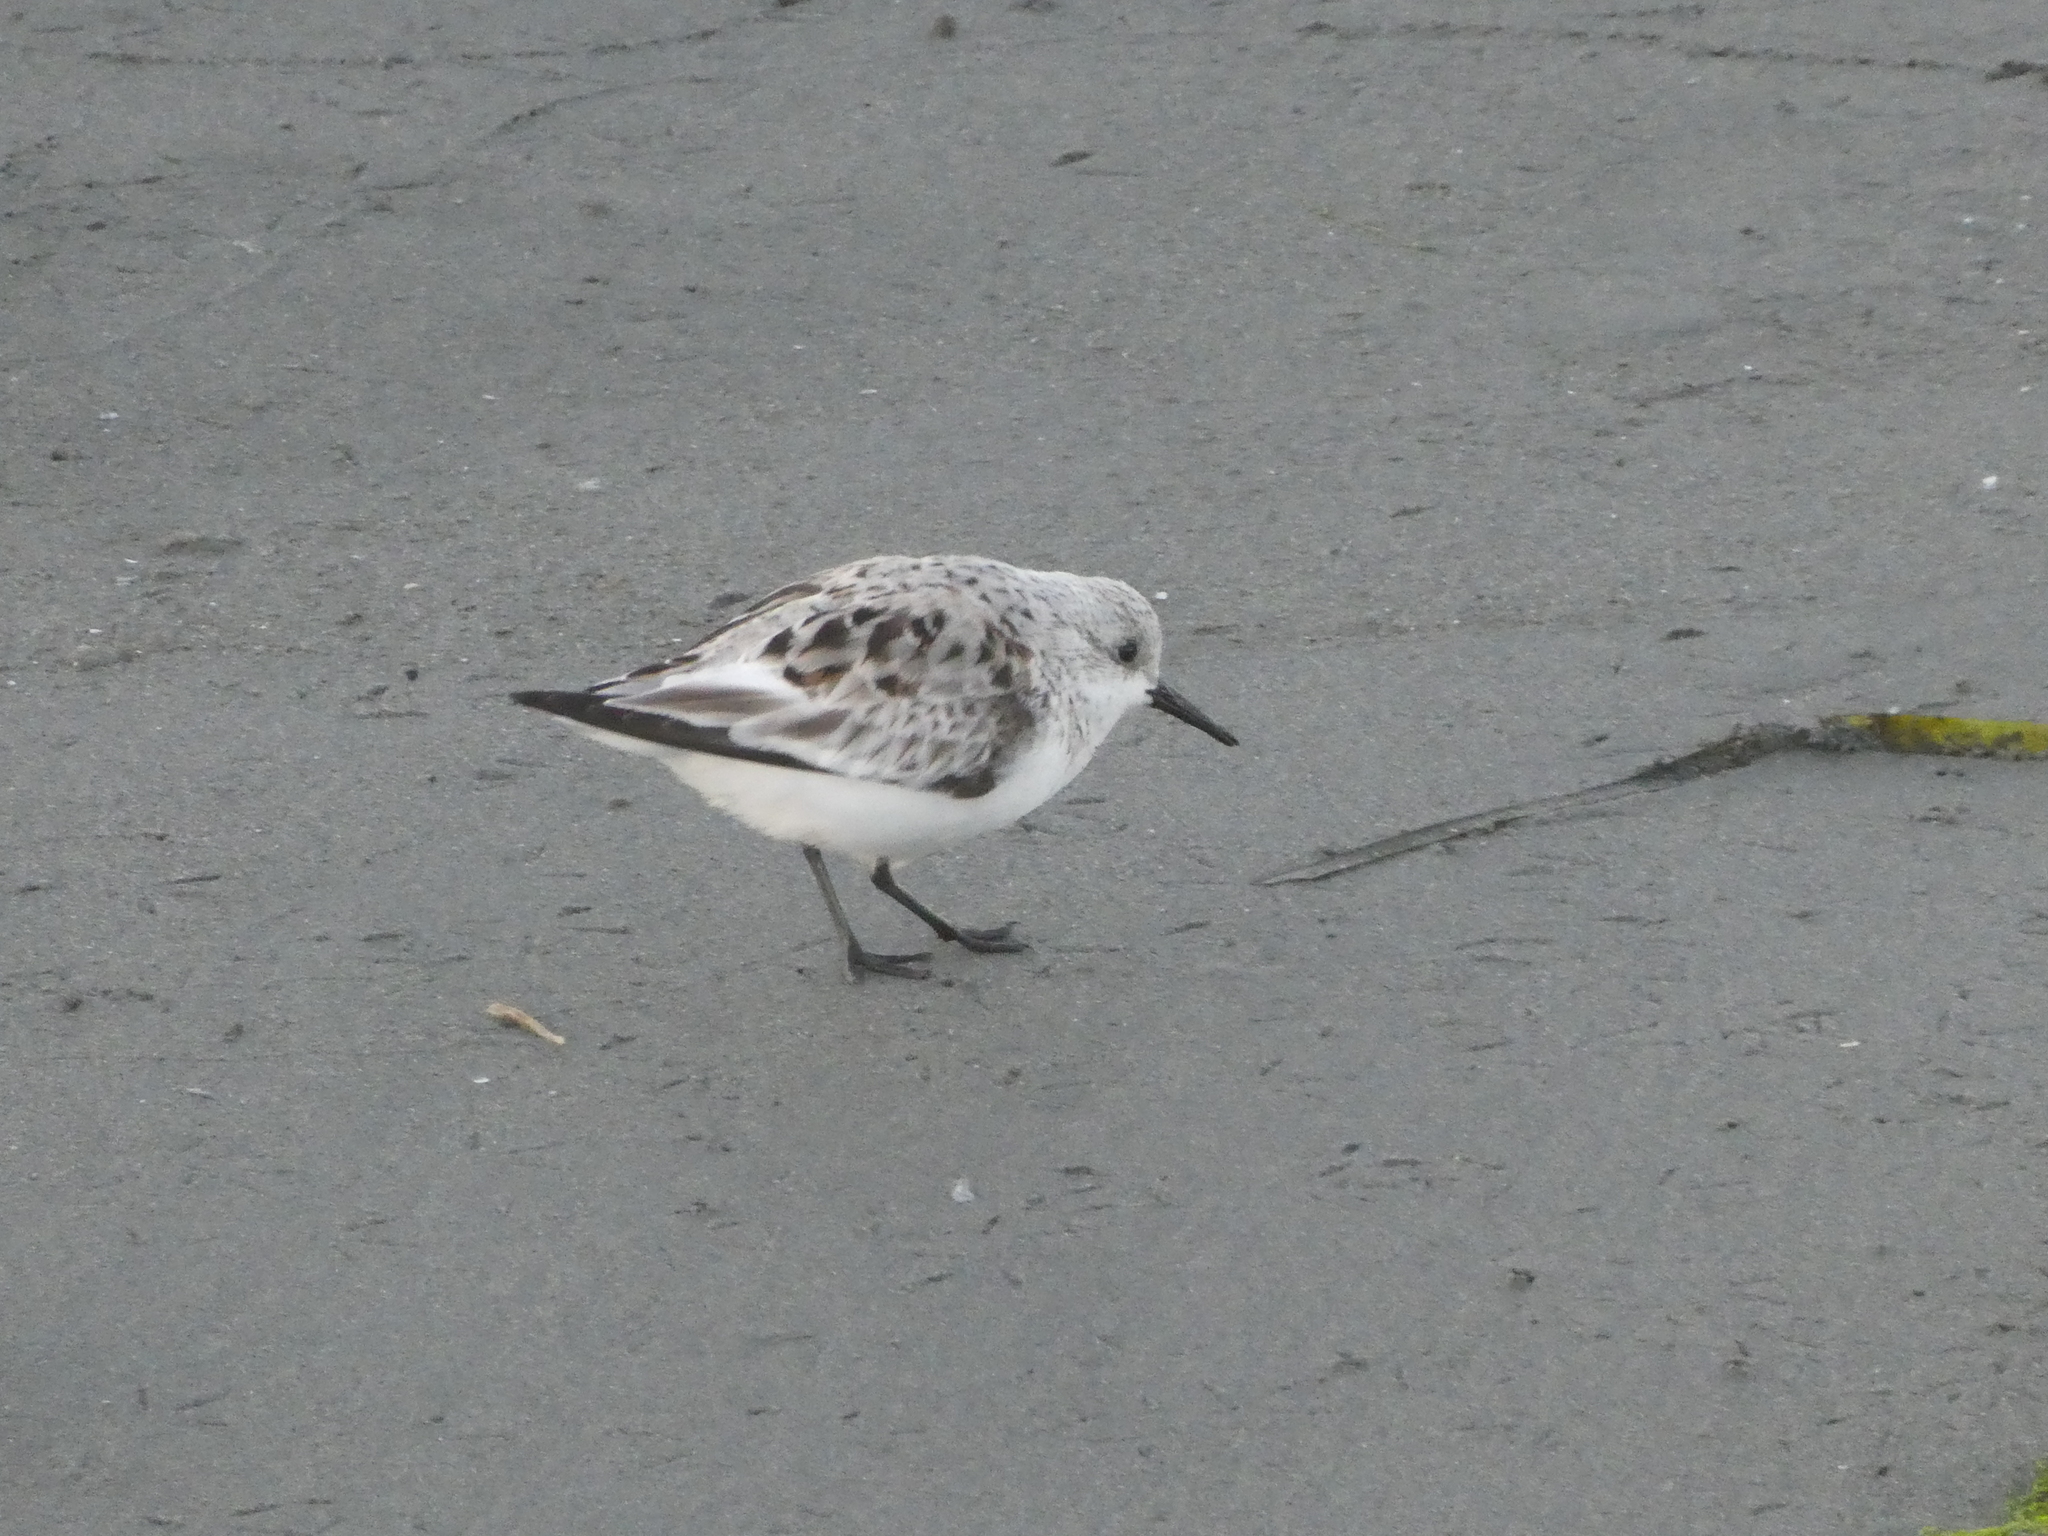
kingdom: Animalia
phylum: Chordata
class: Aves
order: Charadriiformes
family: Scolopacidae
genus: Calidris
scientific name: Calidris alba
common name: Sanderling
